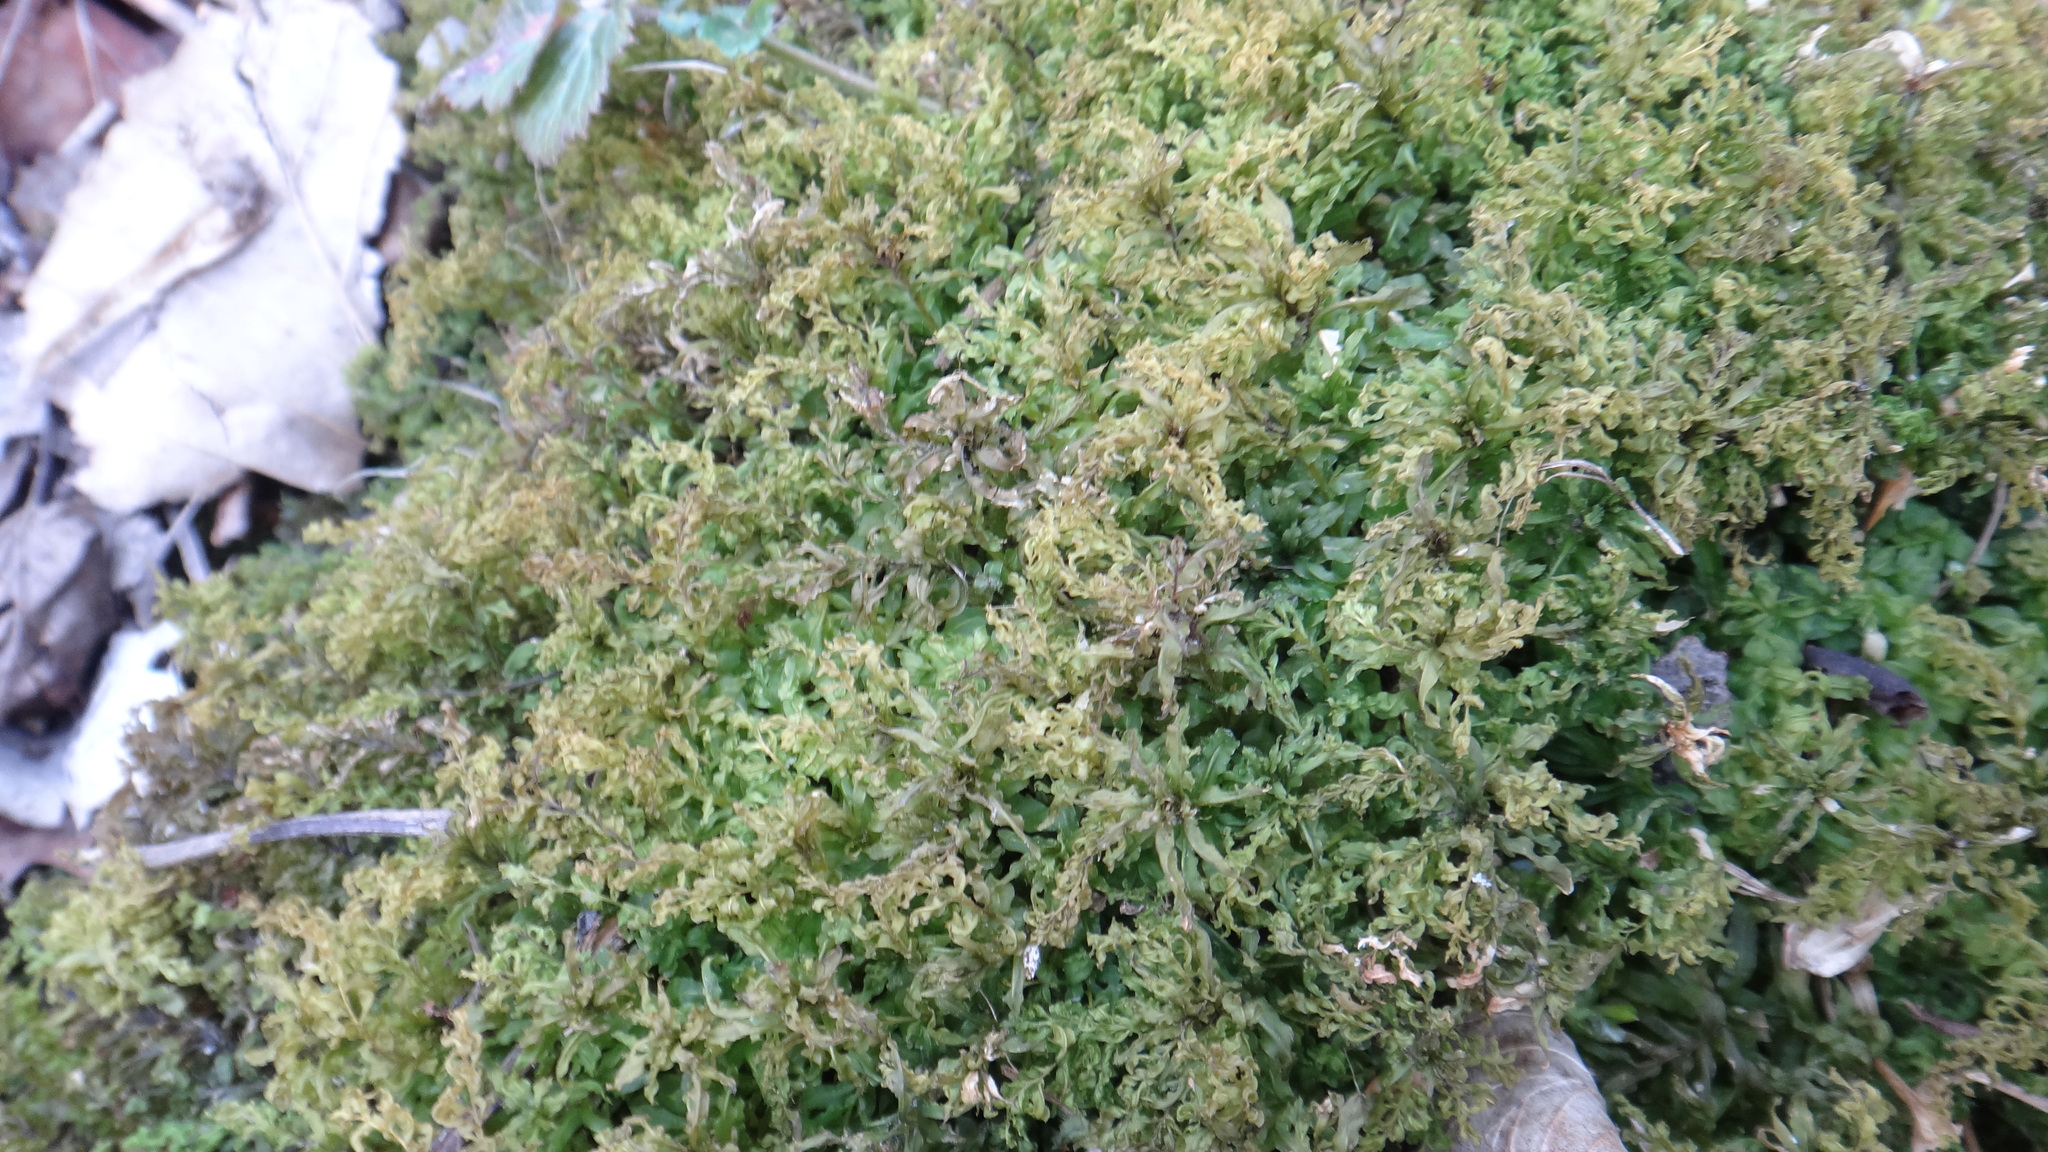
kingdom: Plantae
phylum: Bryophyta
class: Bryopsida
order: Bryales
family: Mniaceae
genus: Plagiomnium
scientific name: Plagiomnium undulatum
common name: Hart's-tongue thyme-moss
